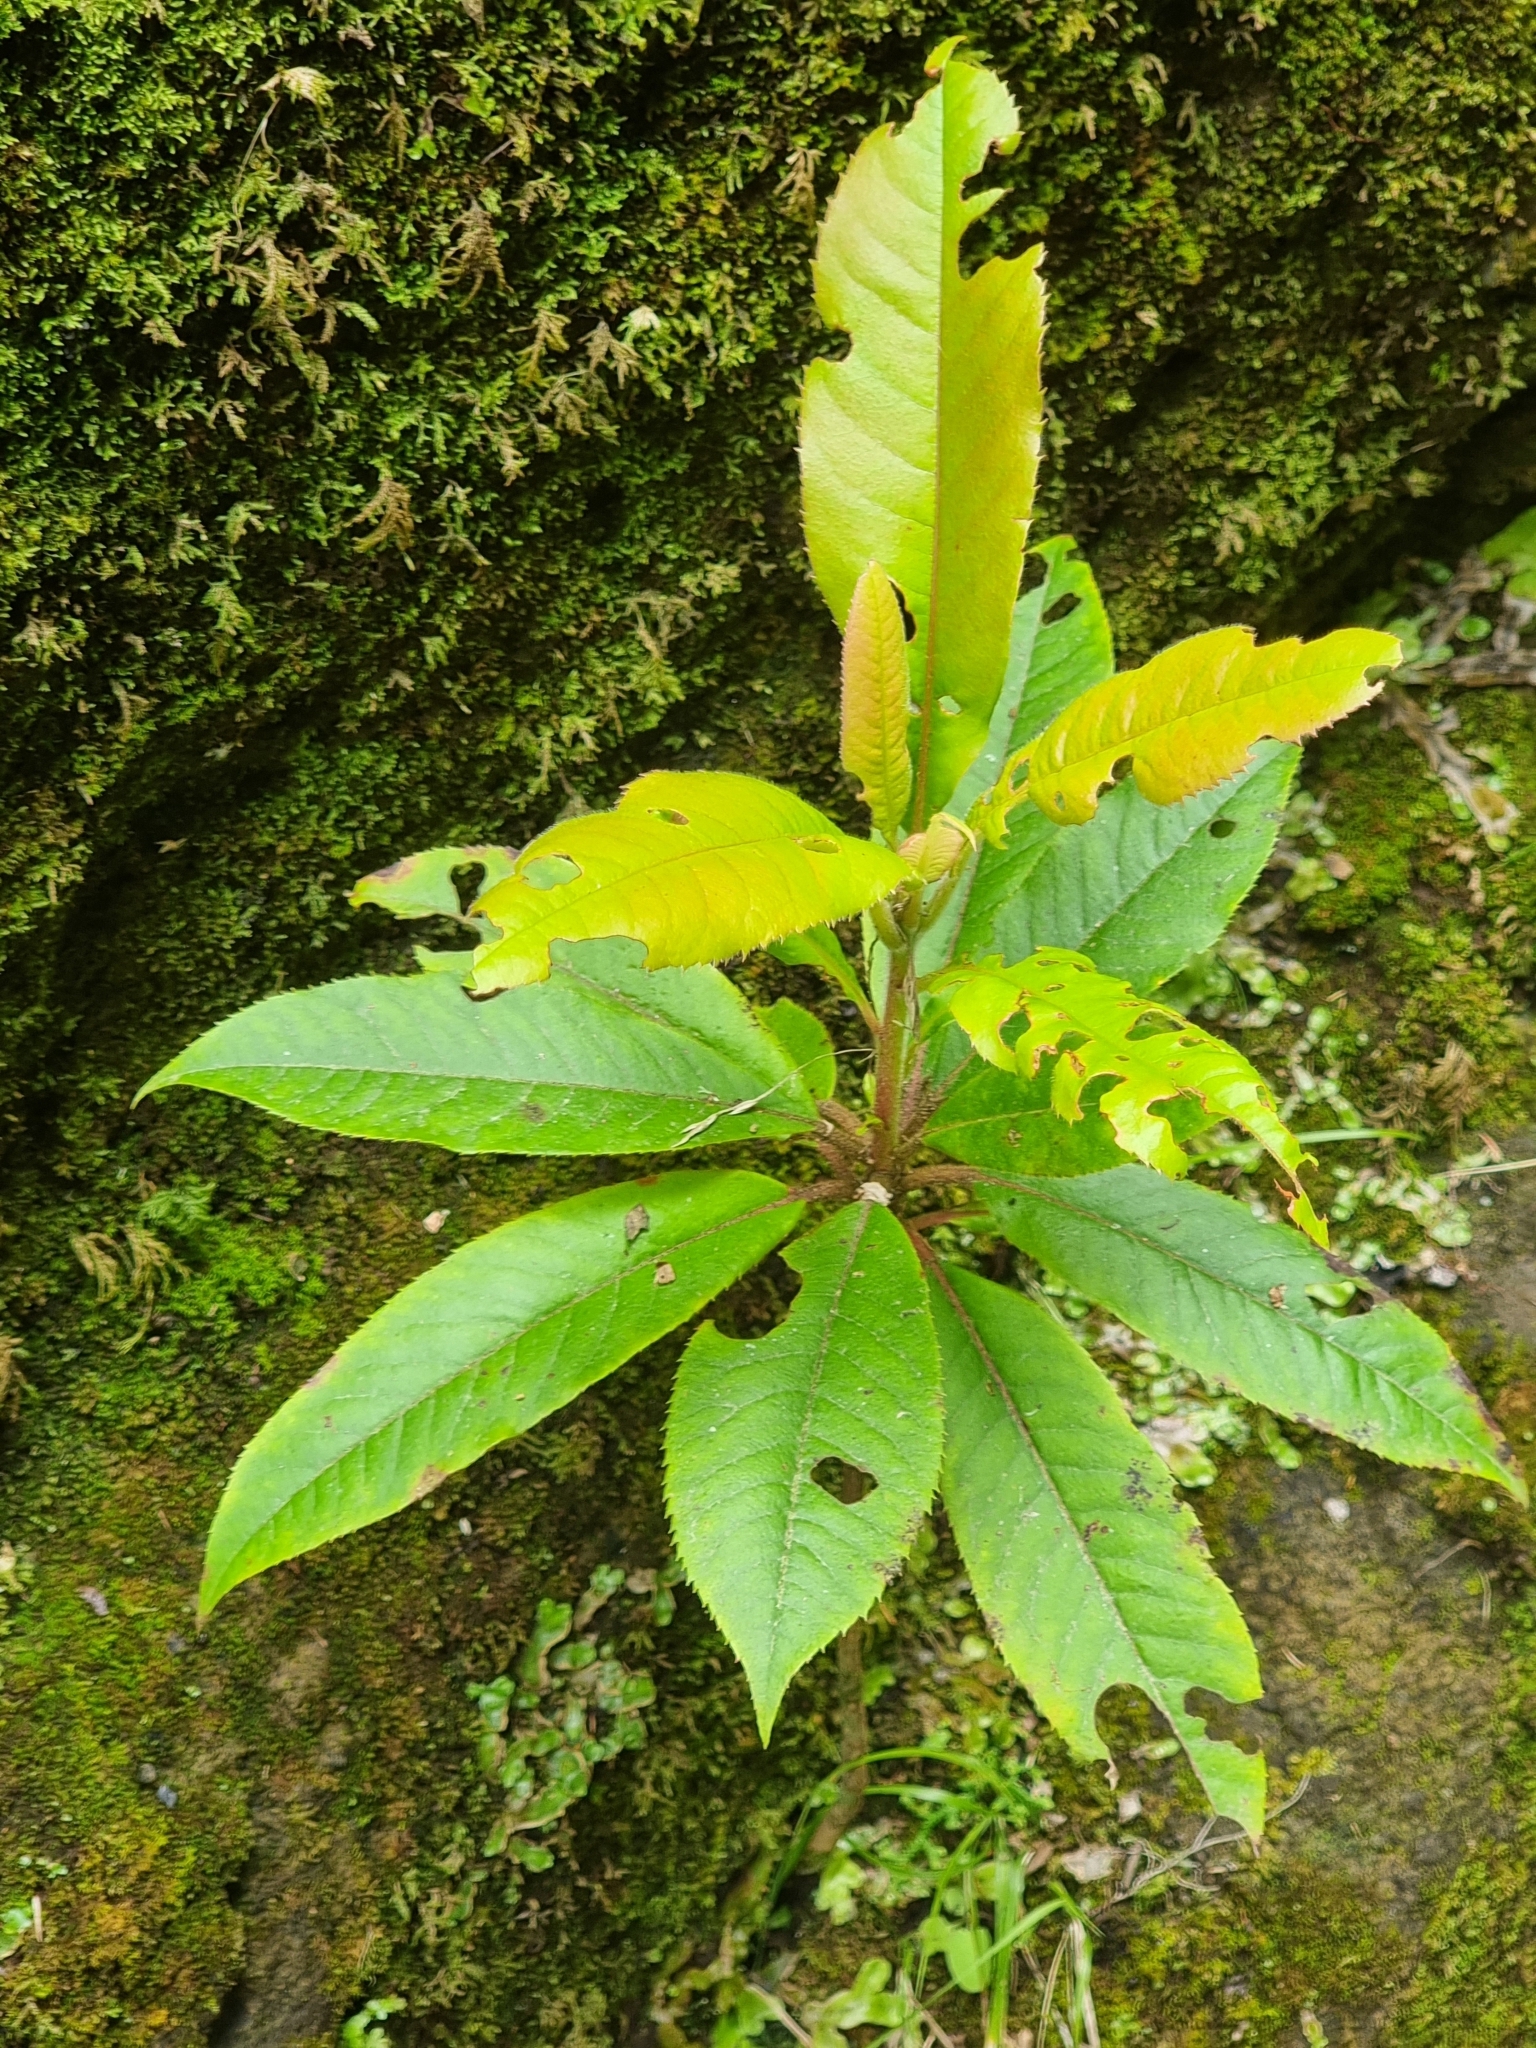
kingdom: Plantae
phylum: Tracheophyta
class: Magnoliopsida
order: Ericales
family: Clethraceae
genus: Clethra
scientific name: Clethra arborea
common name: Lily-of-the-valley-tree
